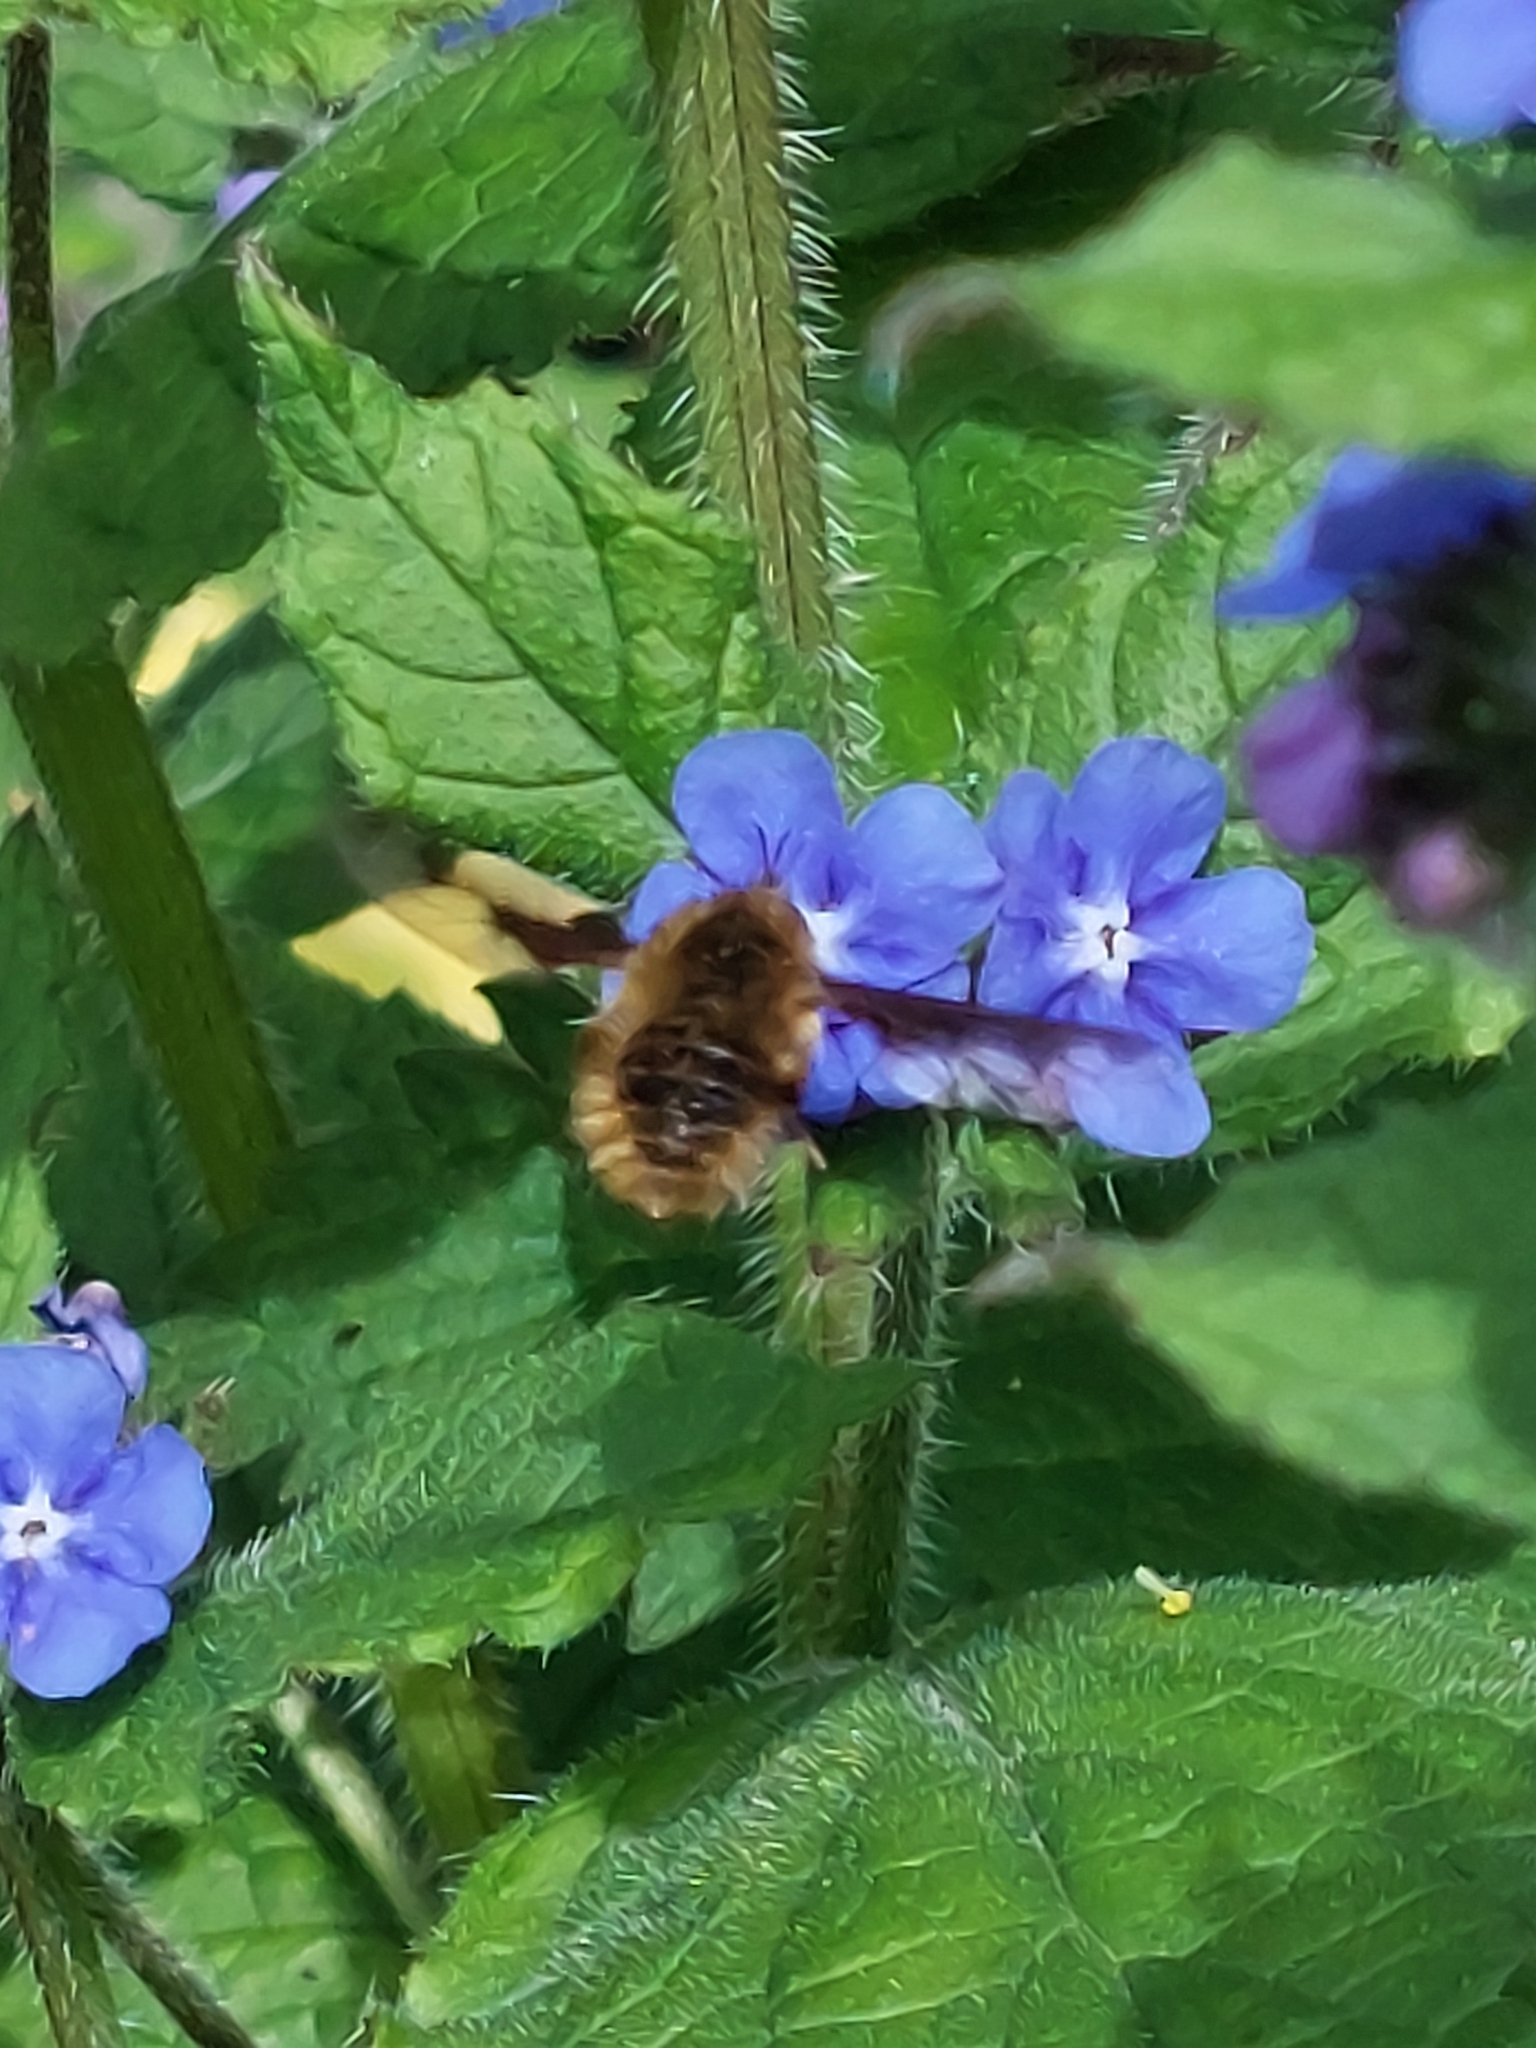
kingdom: Animalia
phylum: Arthropoda
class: Insecta
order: Diptera
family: Bombyliidae
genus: Bombylius
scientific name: Bombylius major
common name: Bee fly
